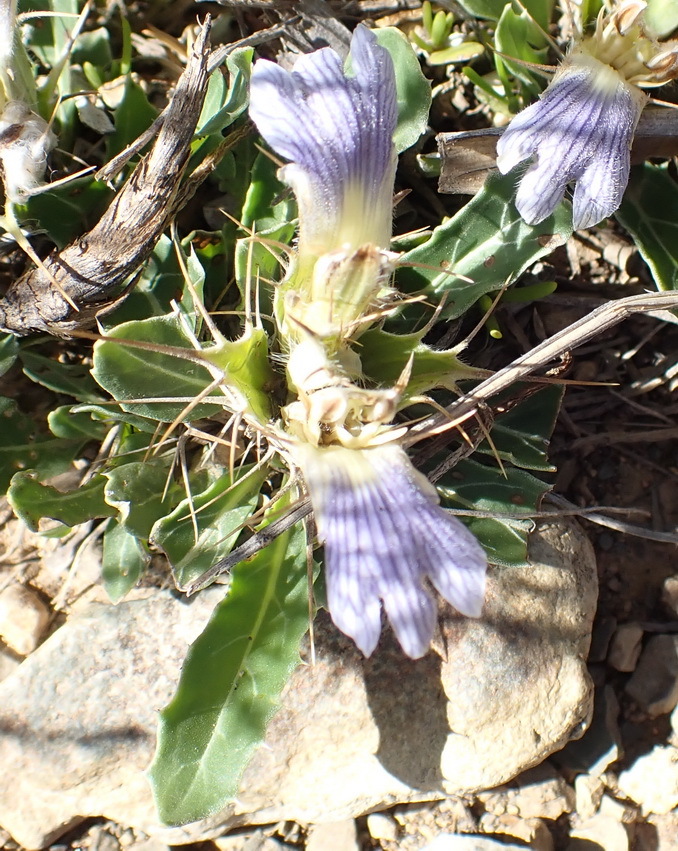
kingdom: Plantae
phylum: Tracheophyta
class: Magnoliopsida
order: Lamiales
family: Acanthaceae
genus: Blepharis
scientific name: Blepharis mitrata
